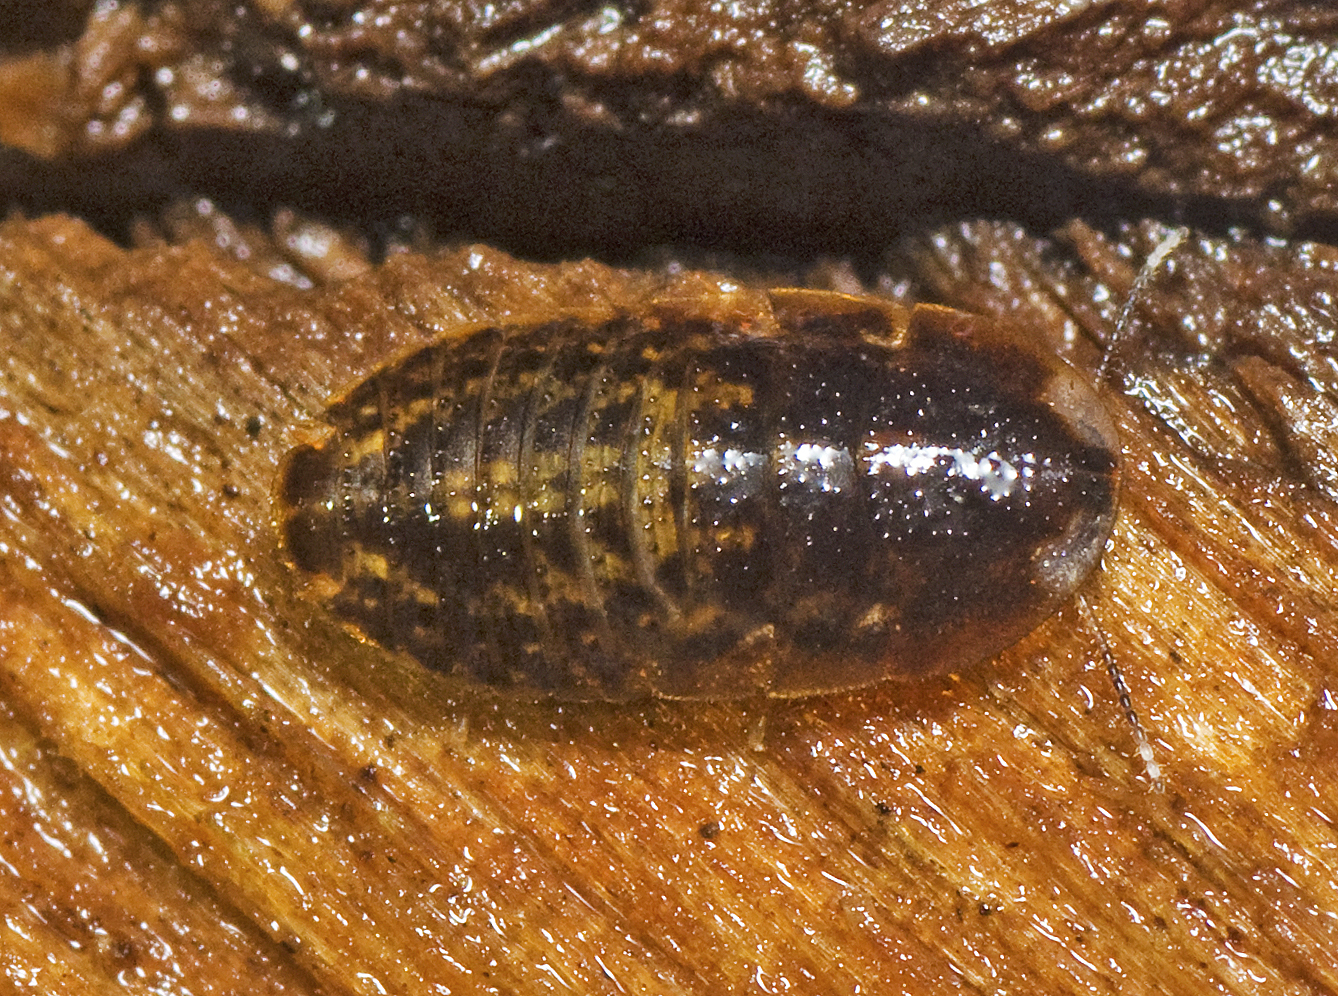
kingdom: Animalia
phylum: Arthropoda
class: Insecta
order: Blattodea
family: Blaberidae
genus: Neolaxta
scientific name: Neolaxta mackerrasae
